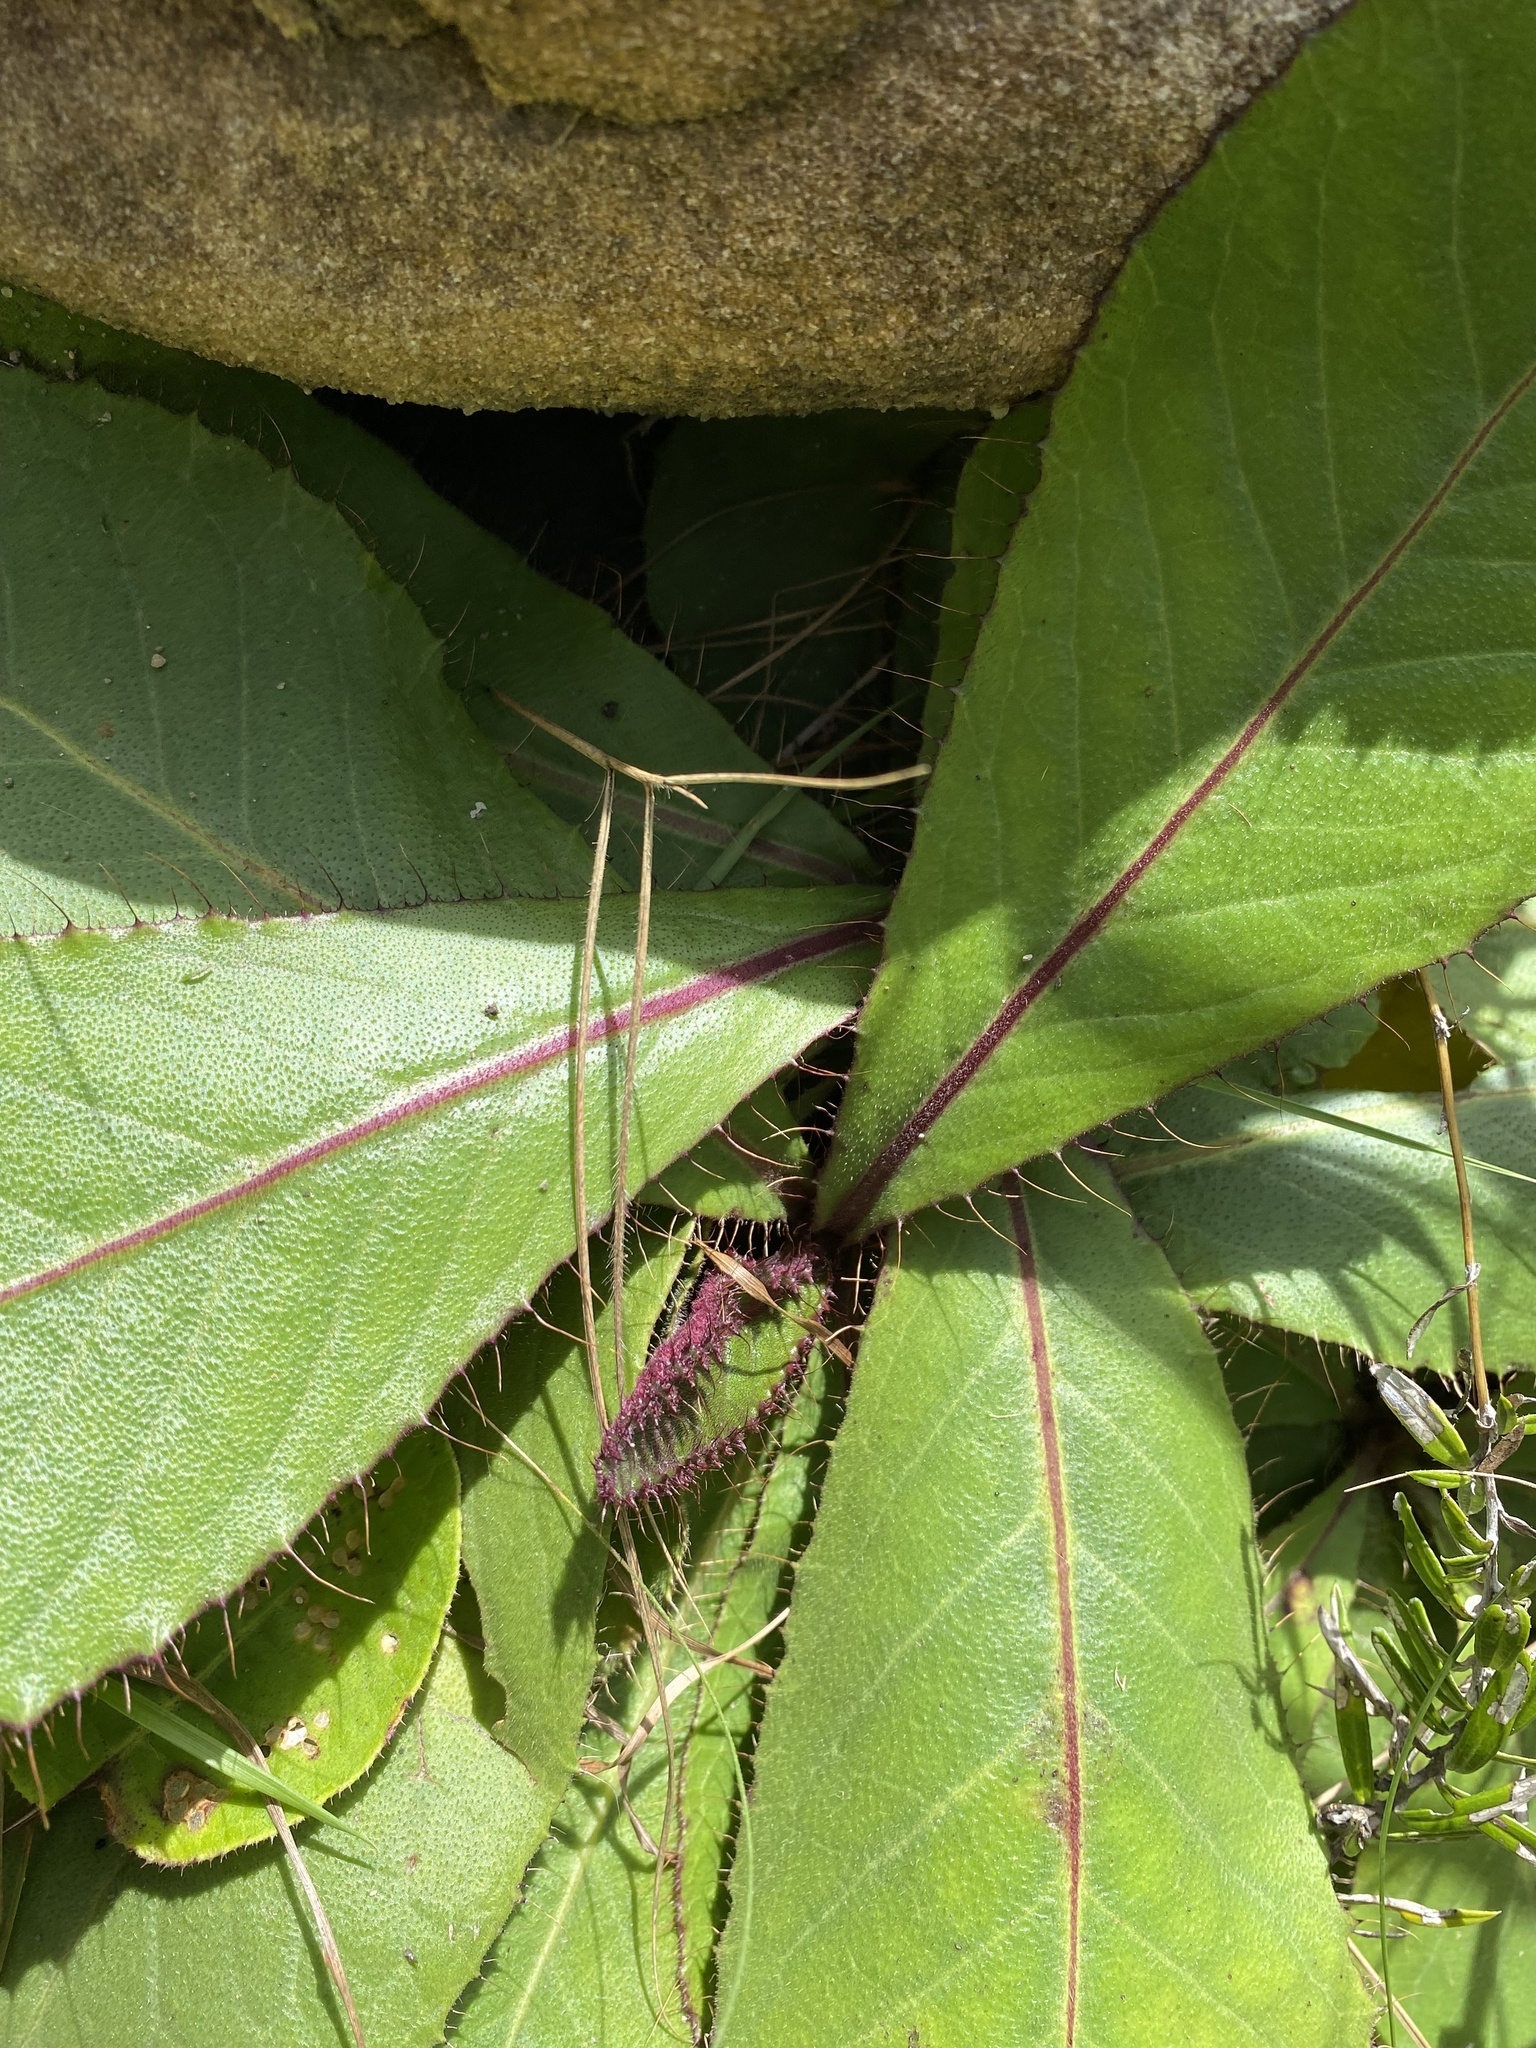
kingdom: Plantae
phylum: Tracheophyta
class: Magnoliopsida
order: Asterales
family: Asteraceae
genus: Berkheya
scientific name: Berkheya rhapontica
